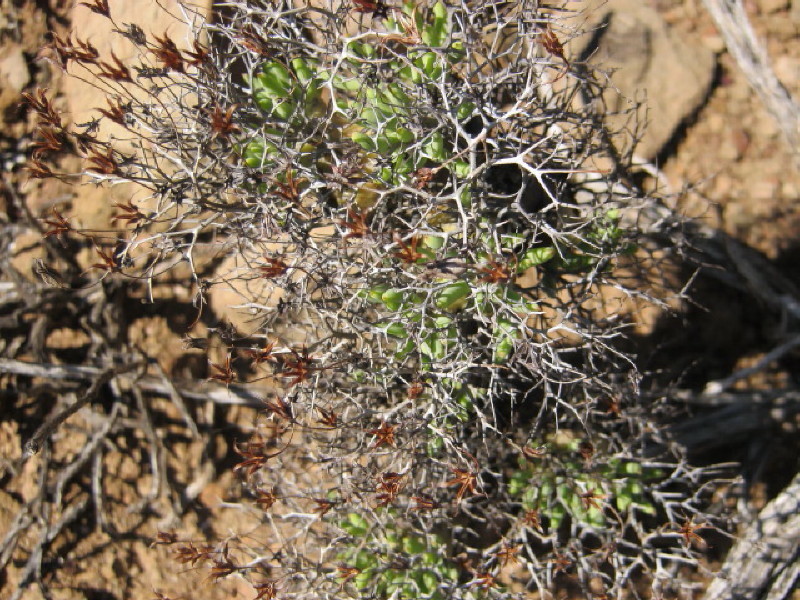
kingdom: Plantae
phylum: Tracheophyta
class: Magnoliopsida
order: Saxifragales
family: Crassulaceae
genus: Tylecodon
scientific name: Tylecodon reticulatus
